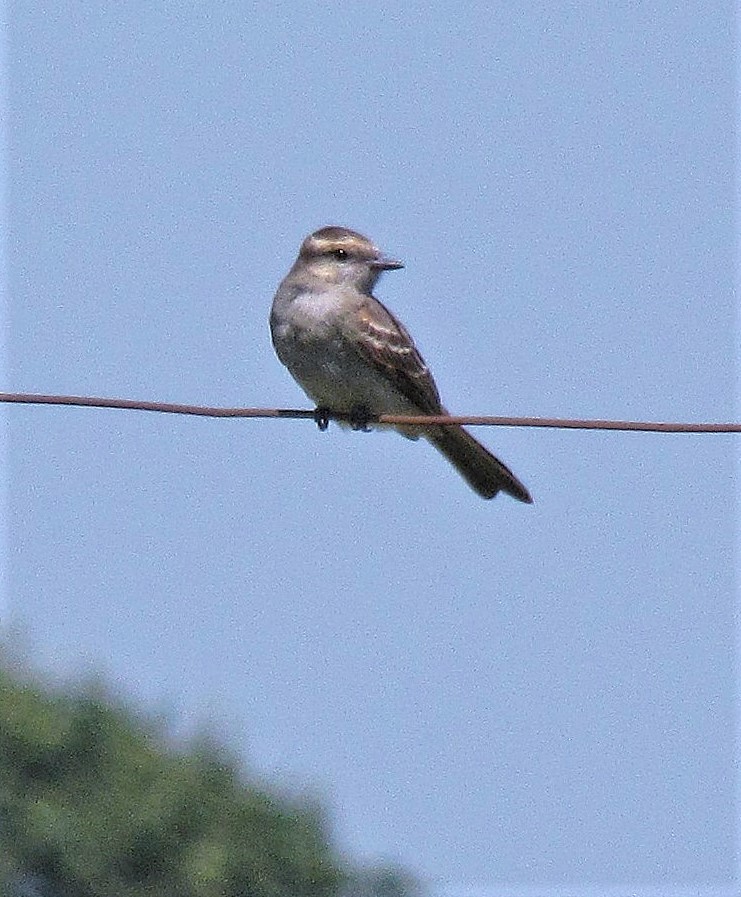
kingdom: Animalia
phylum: Chordata
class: Aves
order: Passeriformes
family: Tyrannidae
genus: Empidonomus
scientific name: Empidonomus aurantioatrocristatus
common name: Crowned slaty flycatcher
